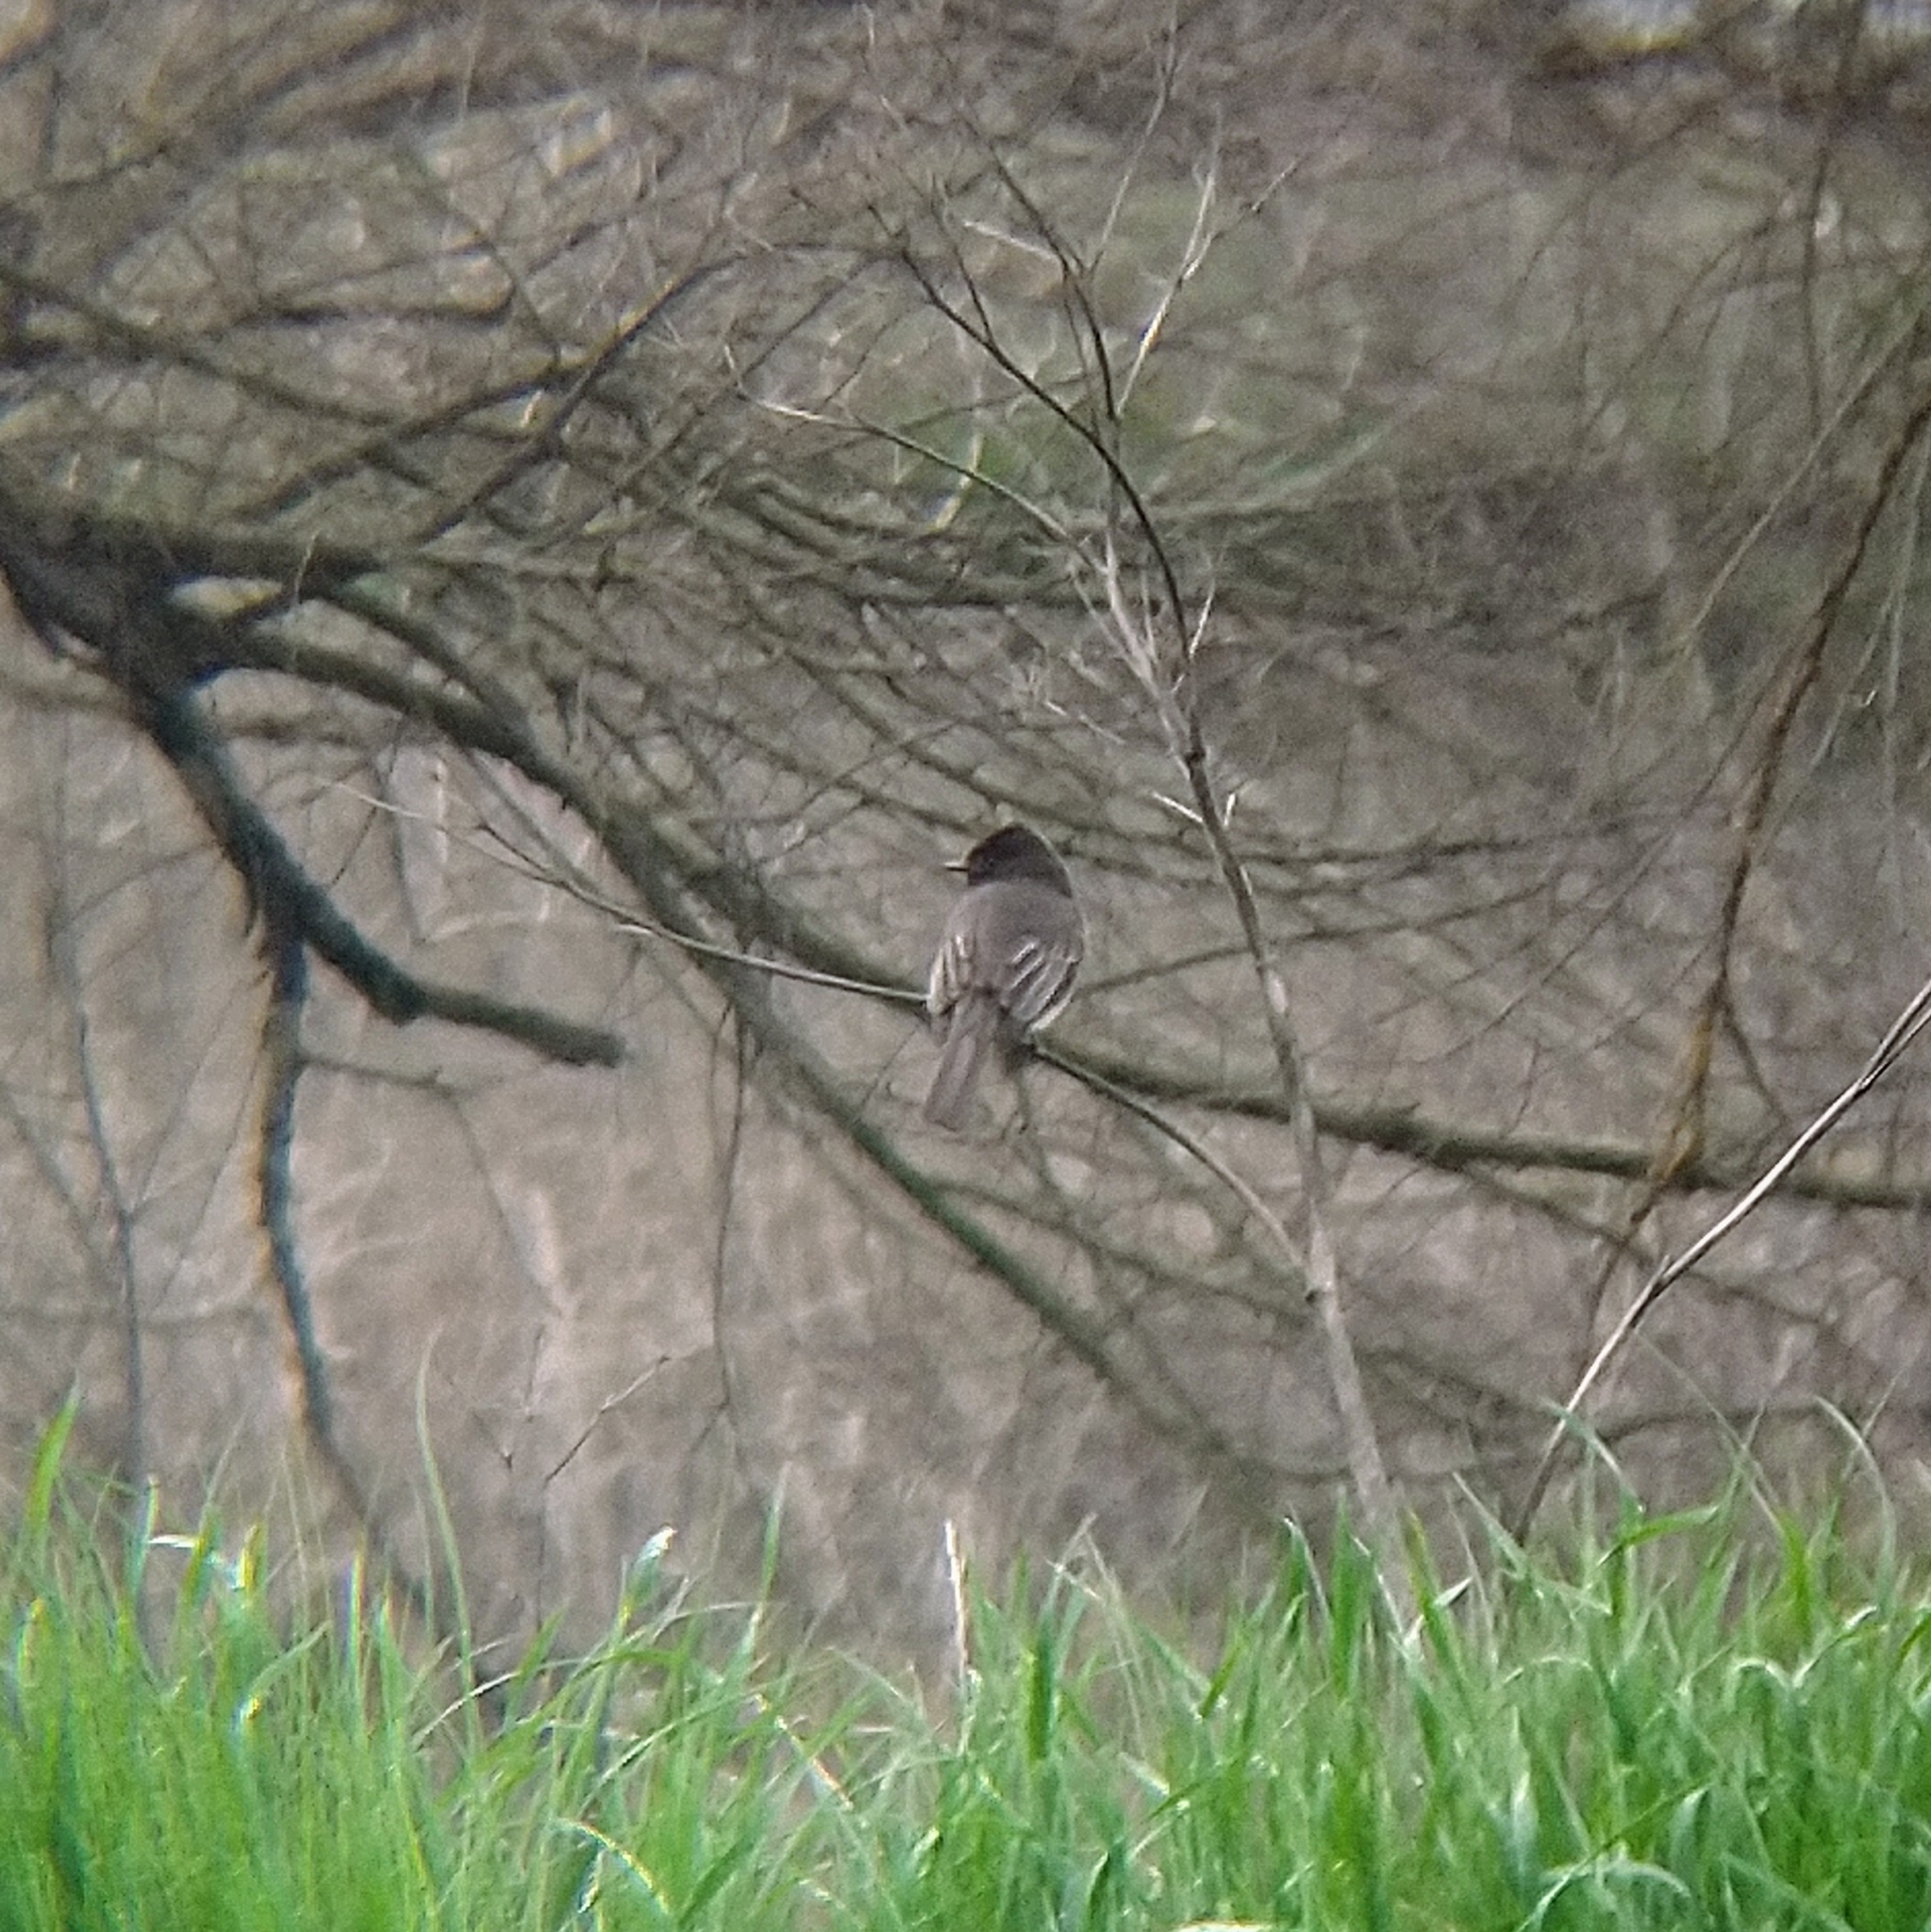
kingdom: Animalia
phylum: Chordata
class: Aves
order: Passeriformes
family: Tyrannidae
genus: Sayornis
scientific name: Sayornis nigricans
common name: Black phoebe
